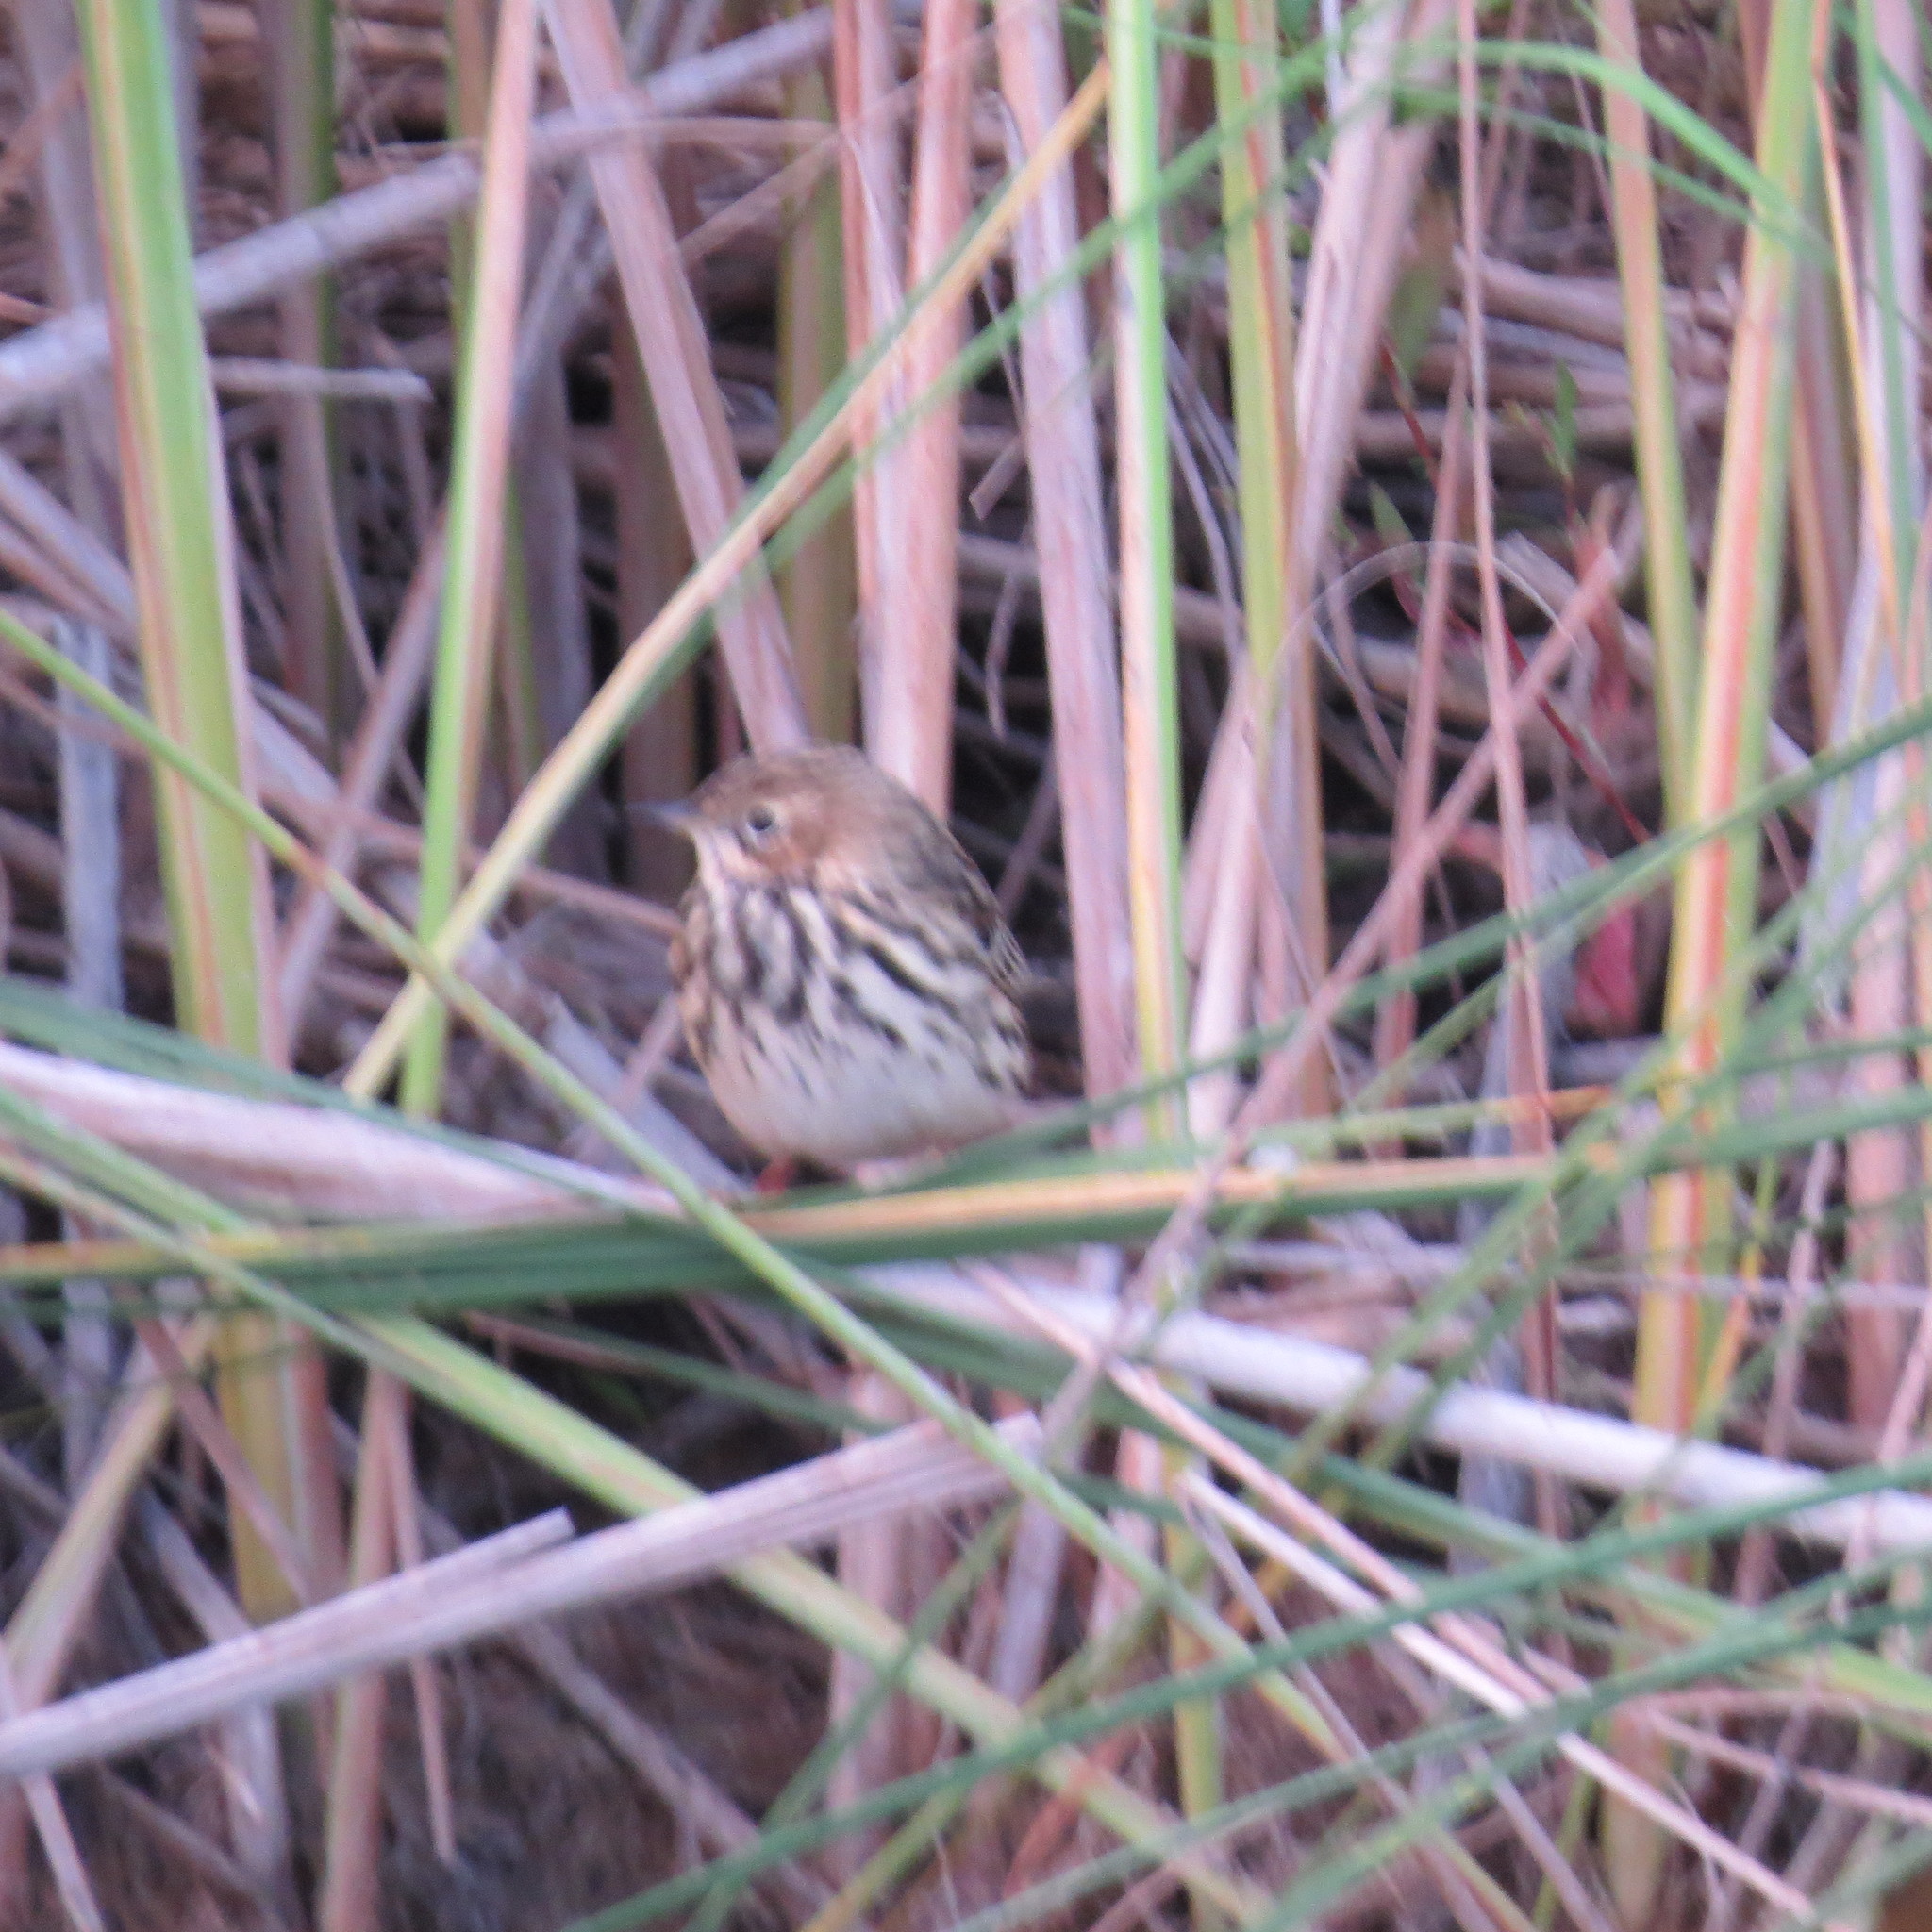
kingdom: Animalia
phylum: Chordata
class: Aves
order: Passeriformes
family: Motacillidae
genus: Anthus
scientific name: Anthus cervinus
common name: Red-throated pipit
